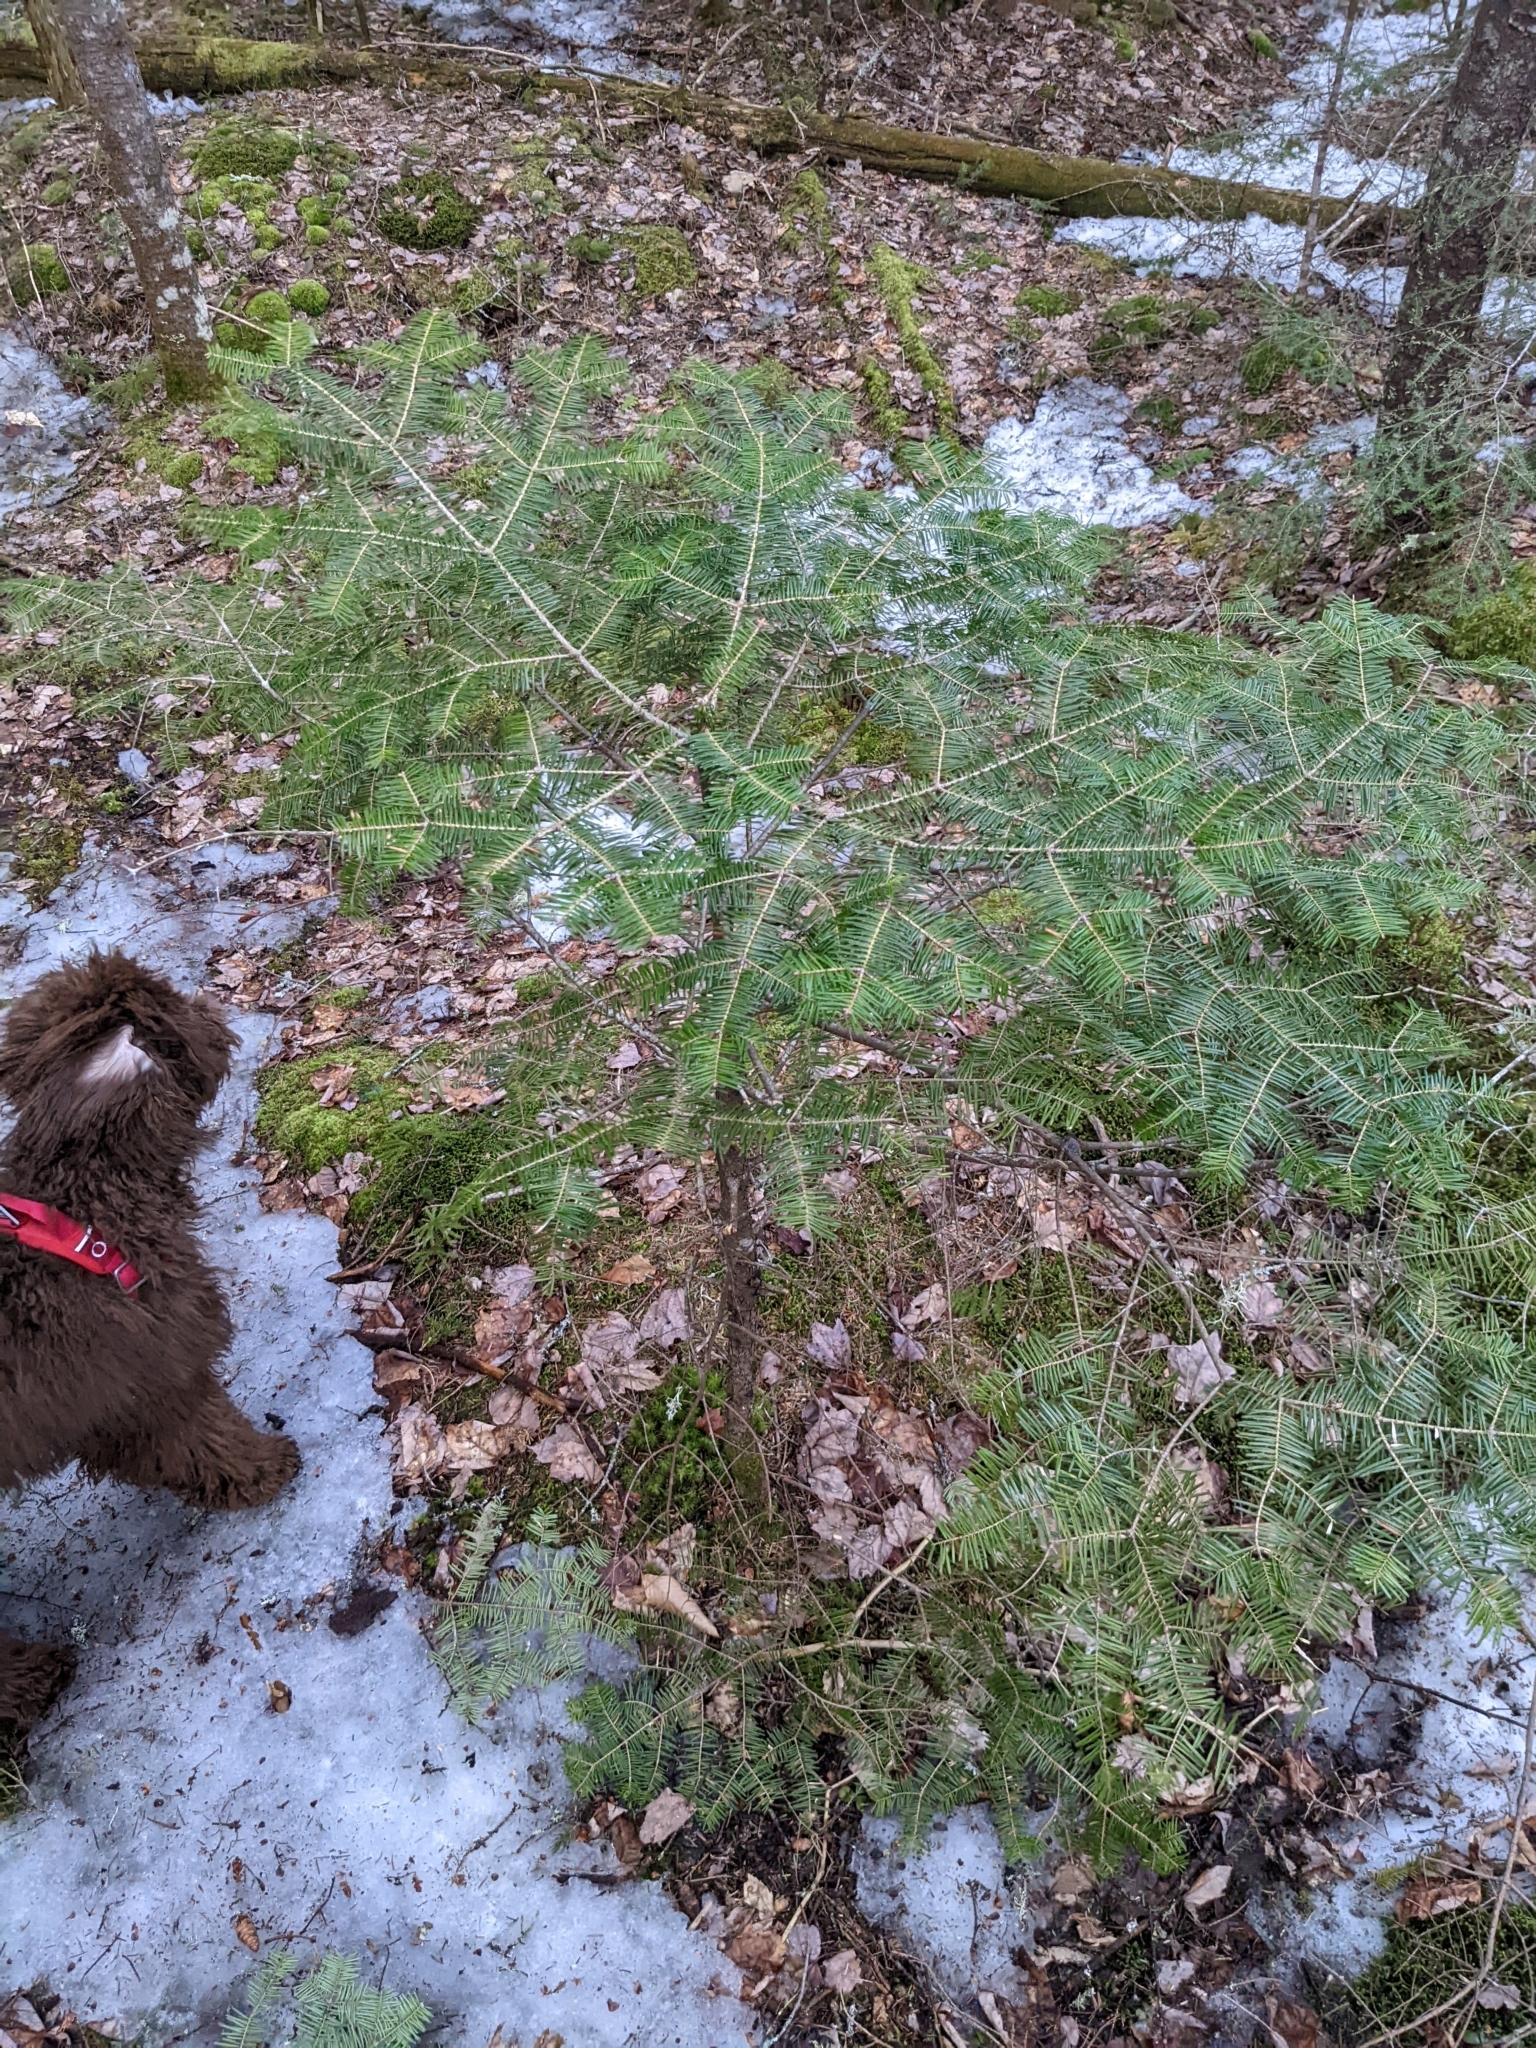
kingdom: Plantae
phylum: Tracheophyta
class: Pinopsida
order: Pinales
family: Pinaceae
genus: Abies
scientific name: Abies balsamea
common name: Balsam fir
